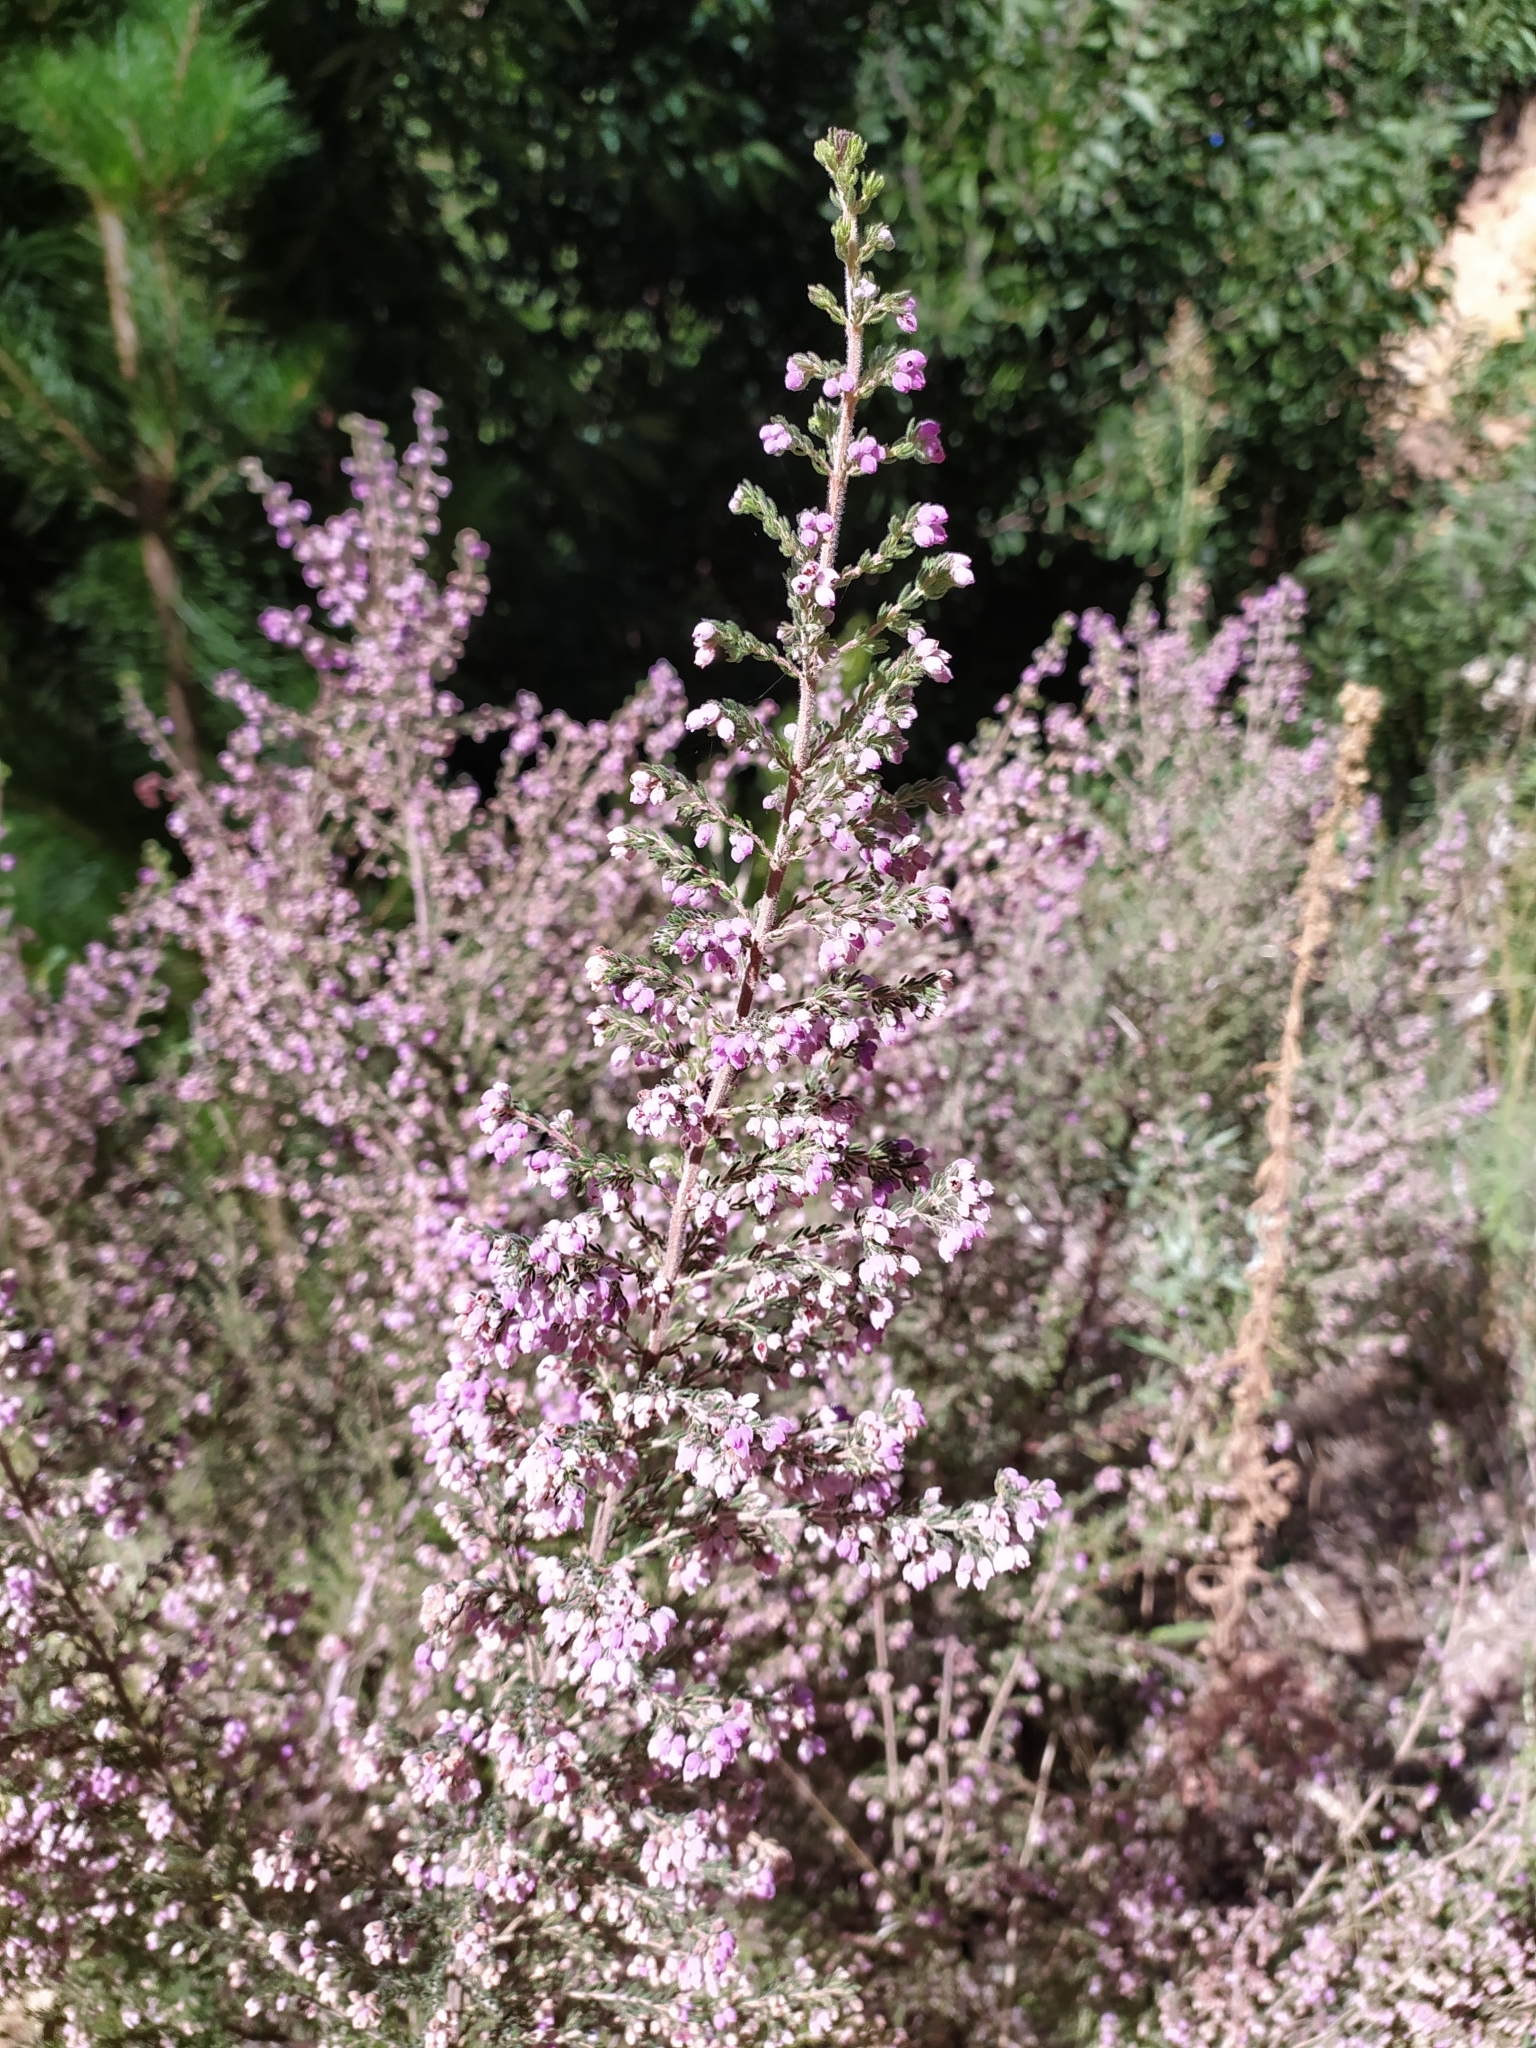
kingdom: Plantae
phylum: Tracheophyta
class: Magnoliopsida
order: Ericales
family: Ericaceae
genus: Erica
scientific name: Erica hirtiflora
